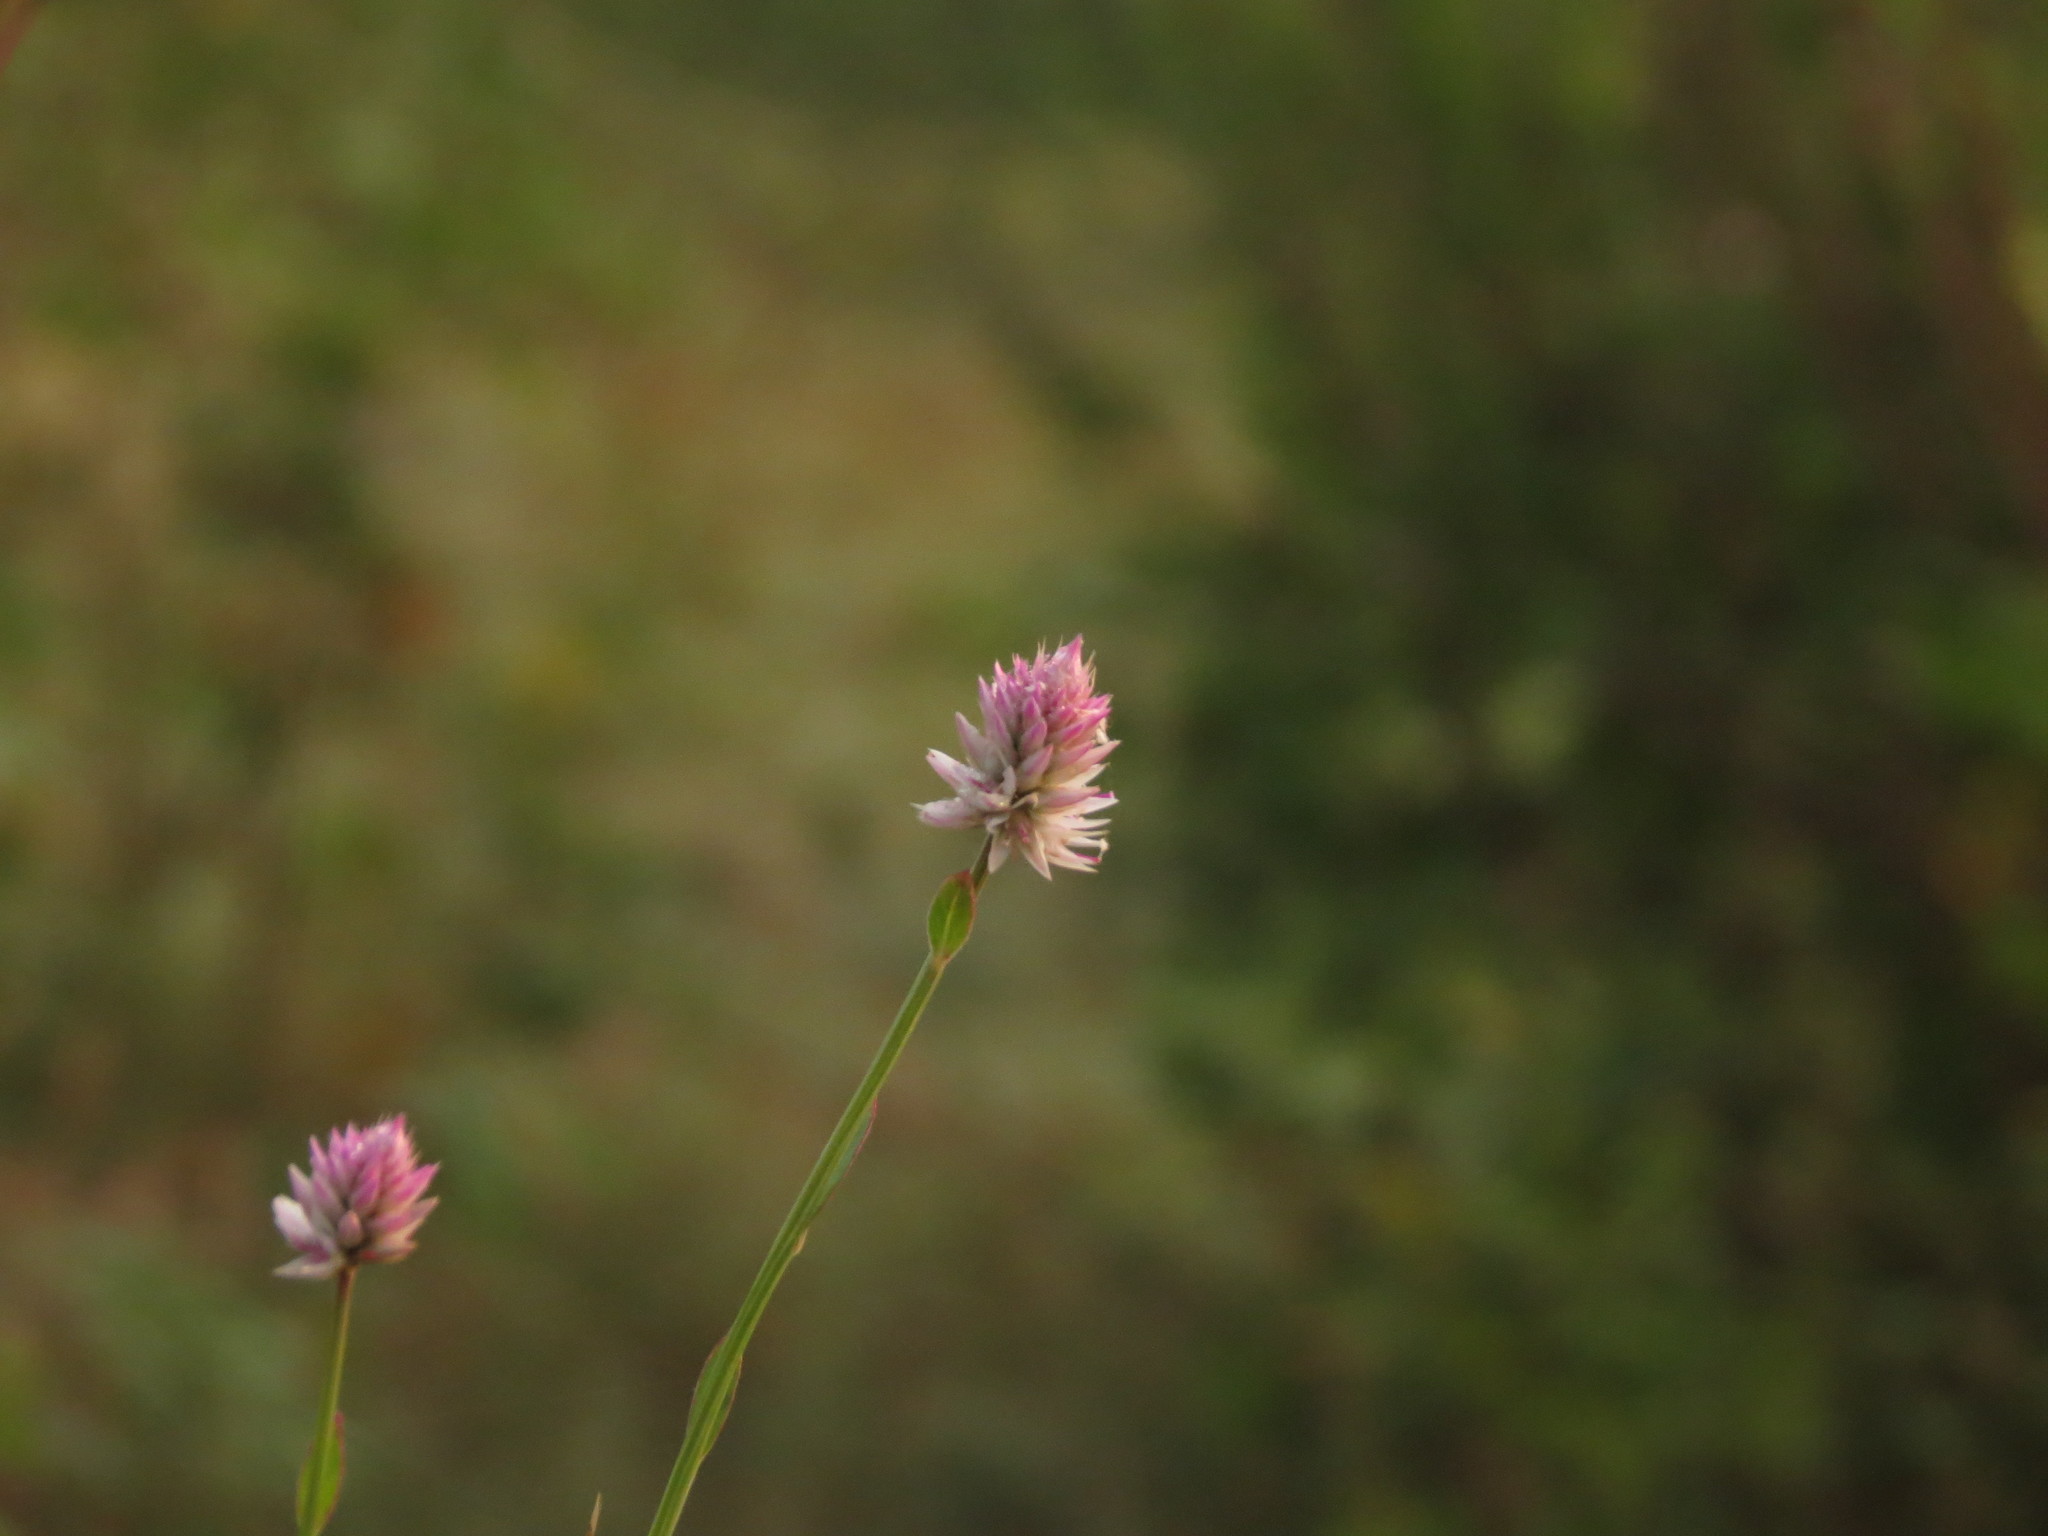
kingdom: Plantae
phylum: Tracheophyta
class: Magnoliopsida
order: Caryophyllales
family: Amaranthaceae
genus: Celosia
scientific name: Celosia argentea
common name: Feather cockscomb
